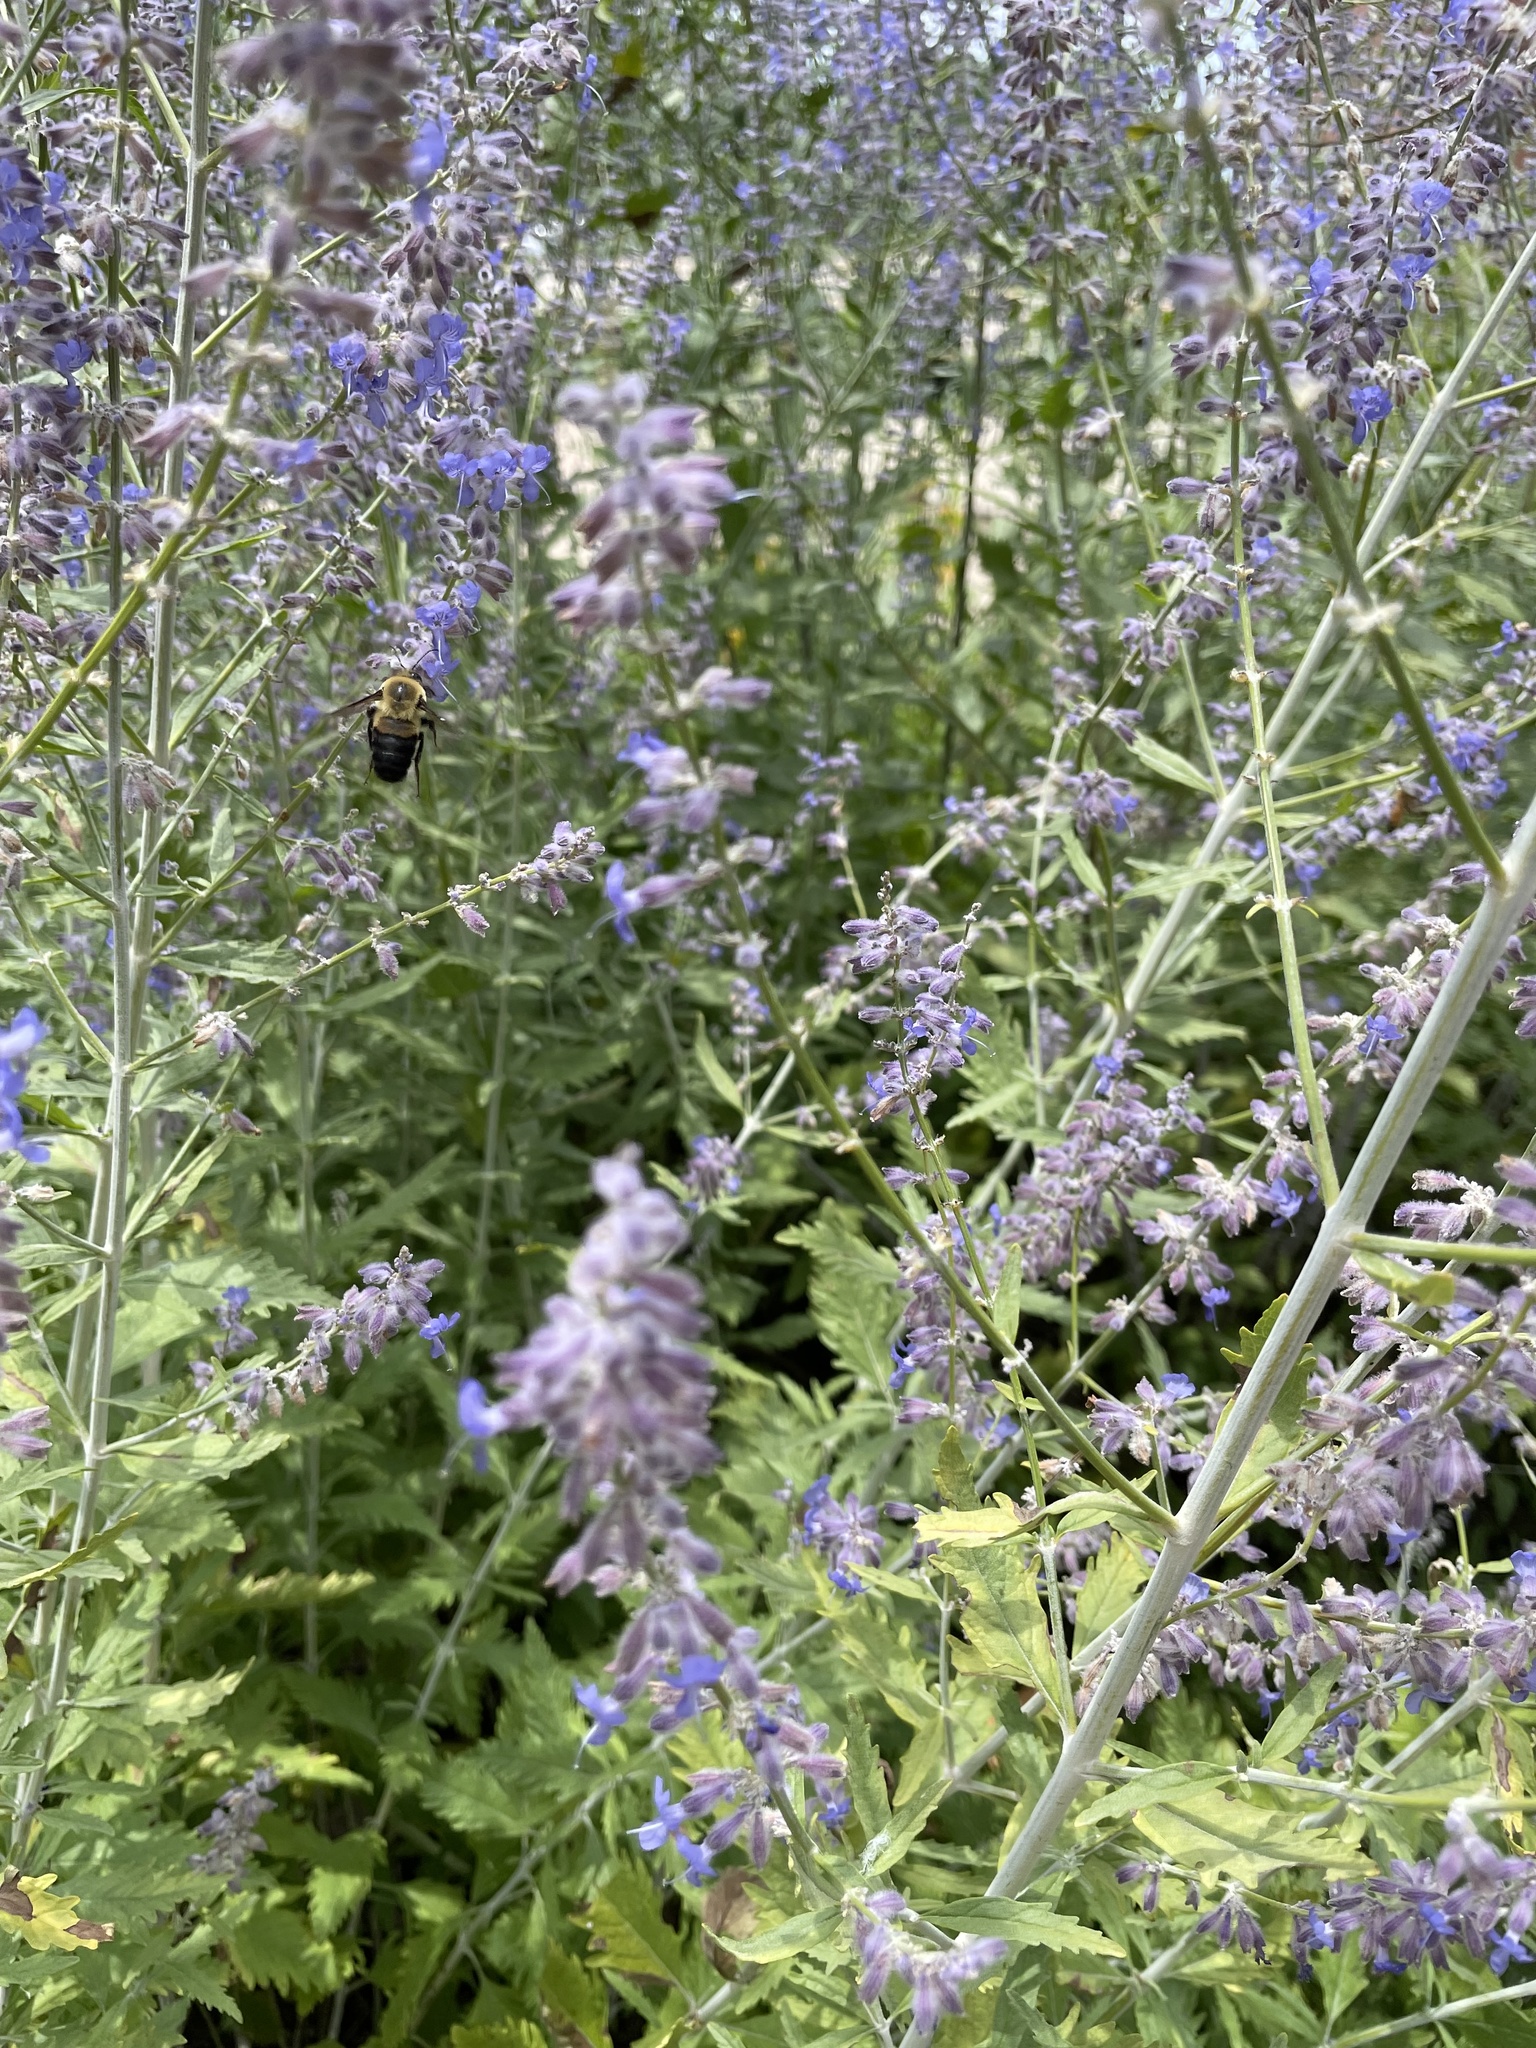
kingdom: Animalia
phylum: Arthropoda
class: Insecta
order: Hymenoptera
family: Apidae
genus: Bombus
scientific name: Bombus griseocollis
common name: Brown-belted bumble bee
